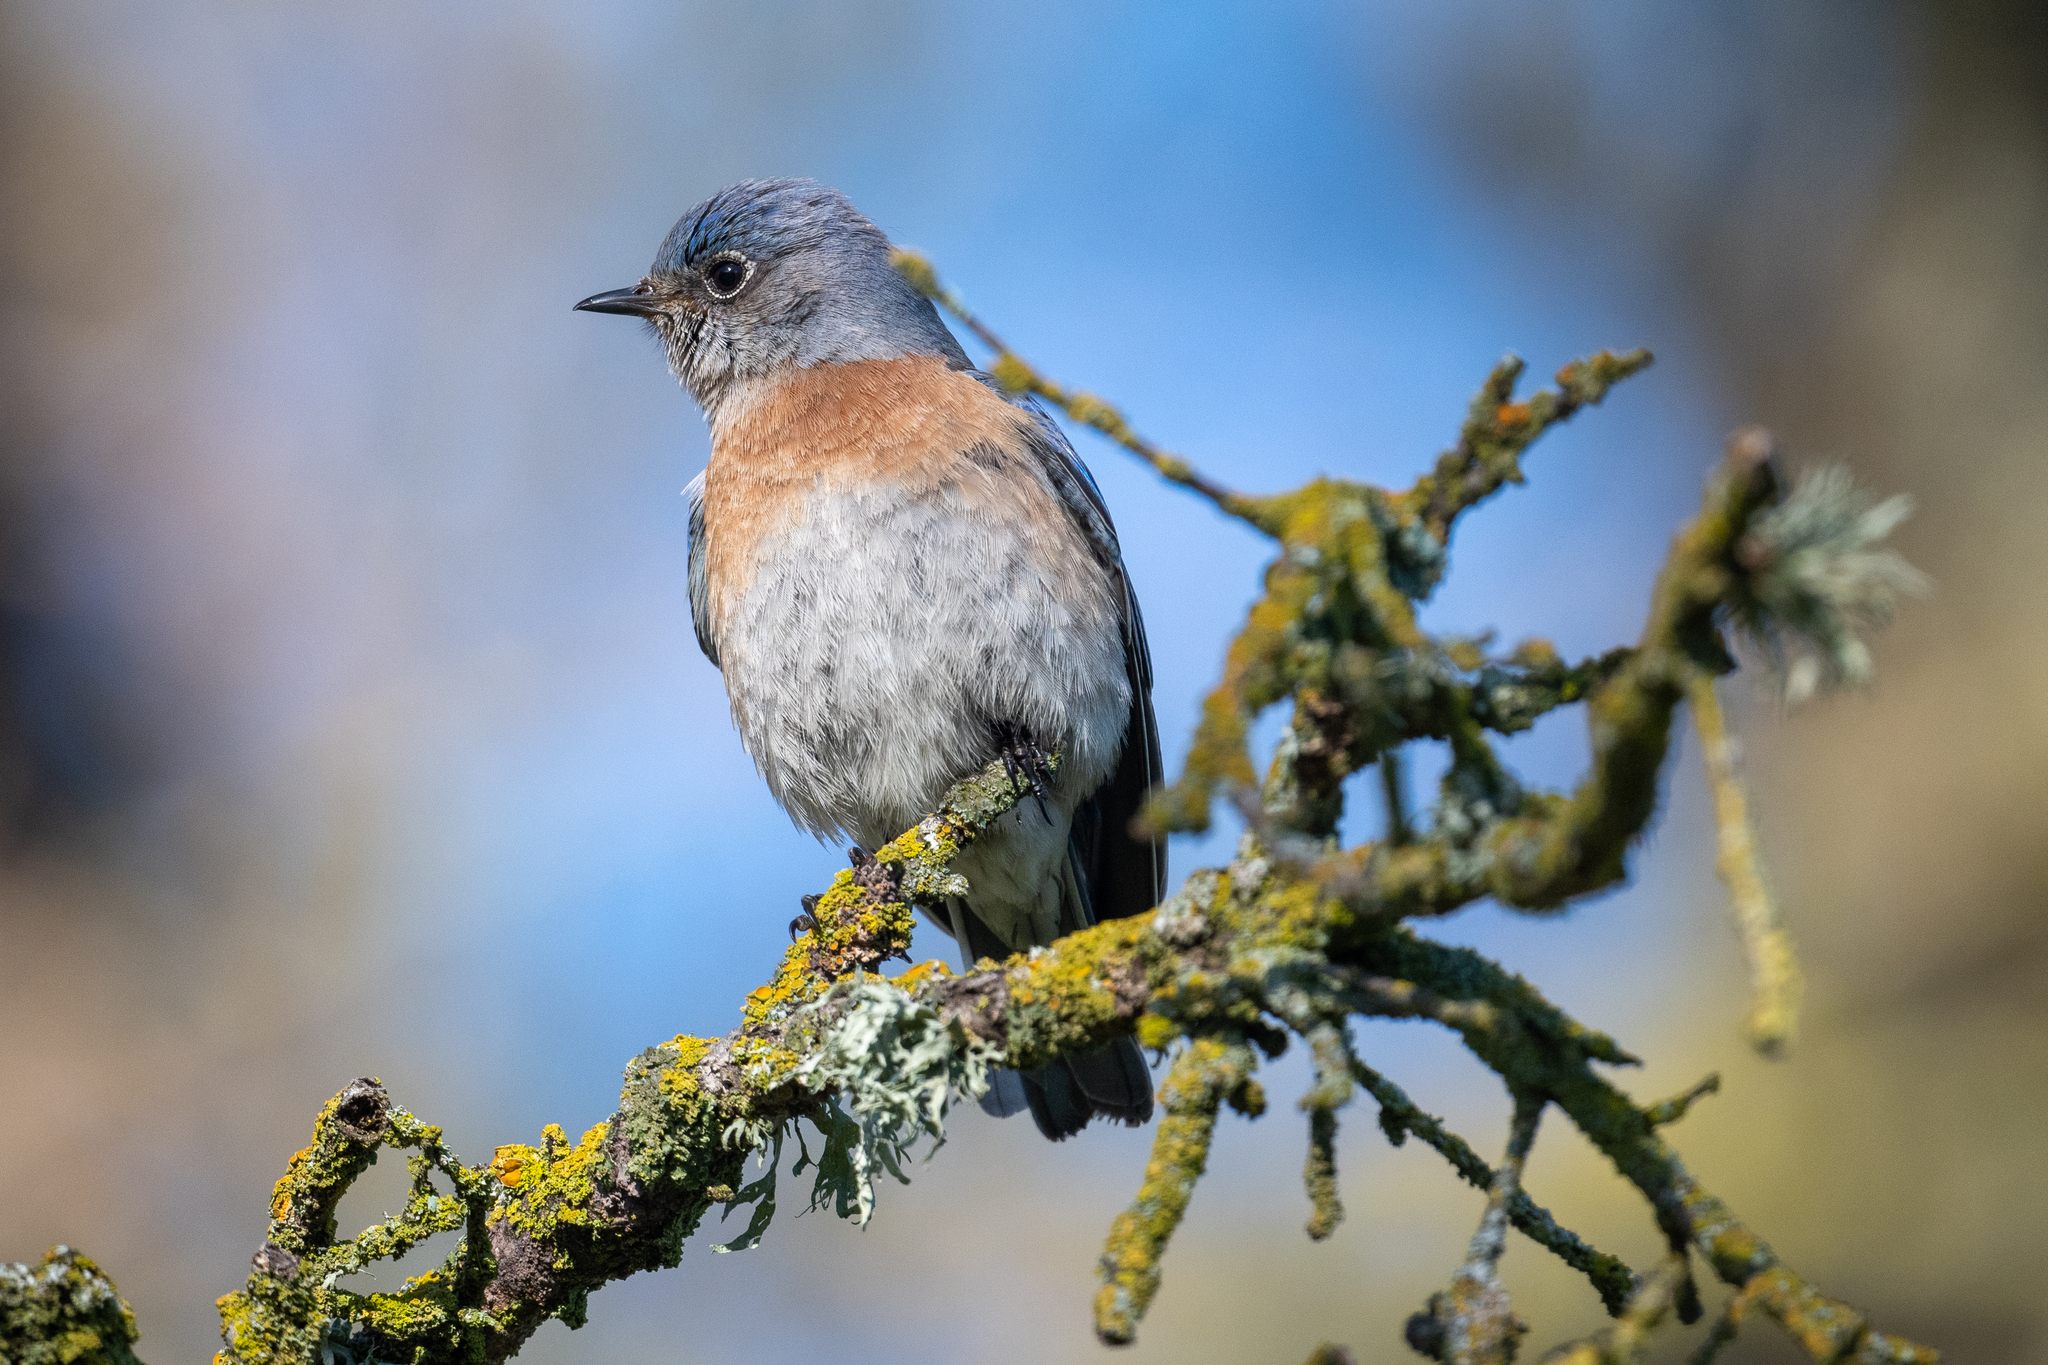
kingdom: Animalia
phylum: Chordata
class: Aves
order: Passeriformes
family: Turdidae
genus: Sialia
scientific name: Sialia mexicana
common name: Western bluebird
